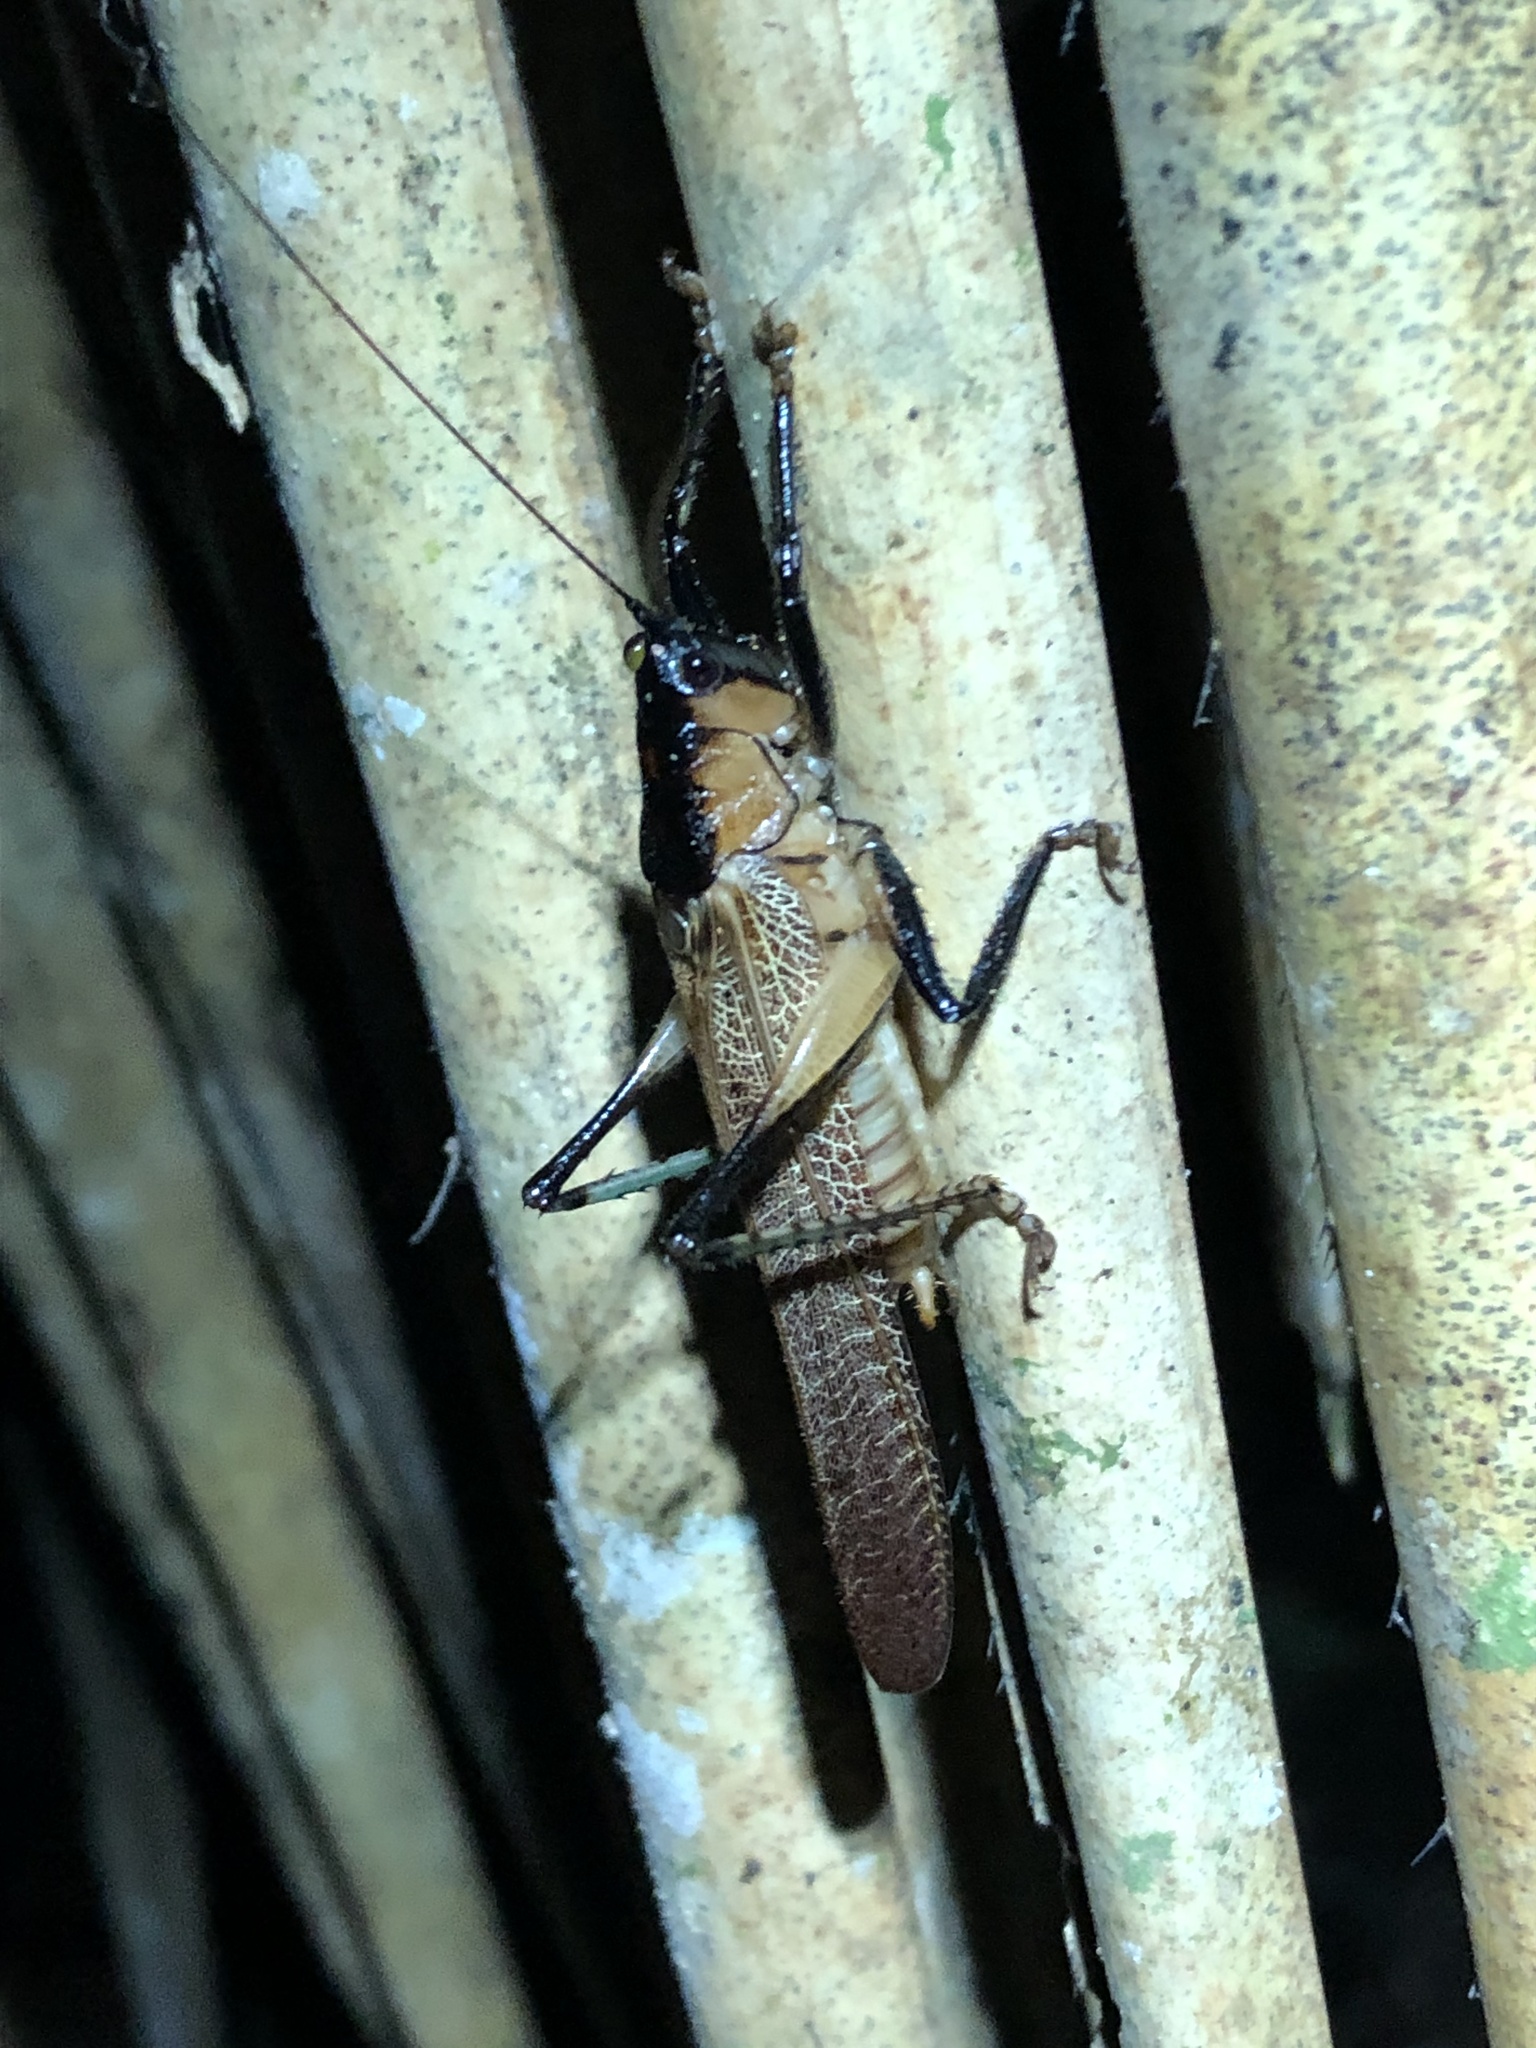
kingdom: Animalia
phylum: Arthropoda
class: Insecta
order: Orthoptera
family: Tettigoniidae
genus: Eschatoceras
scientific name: Eschatoceras punctifrons
